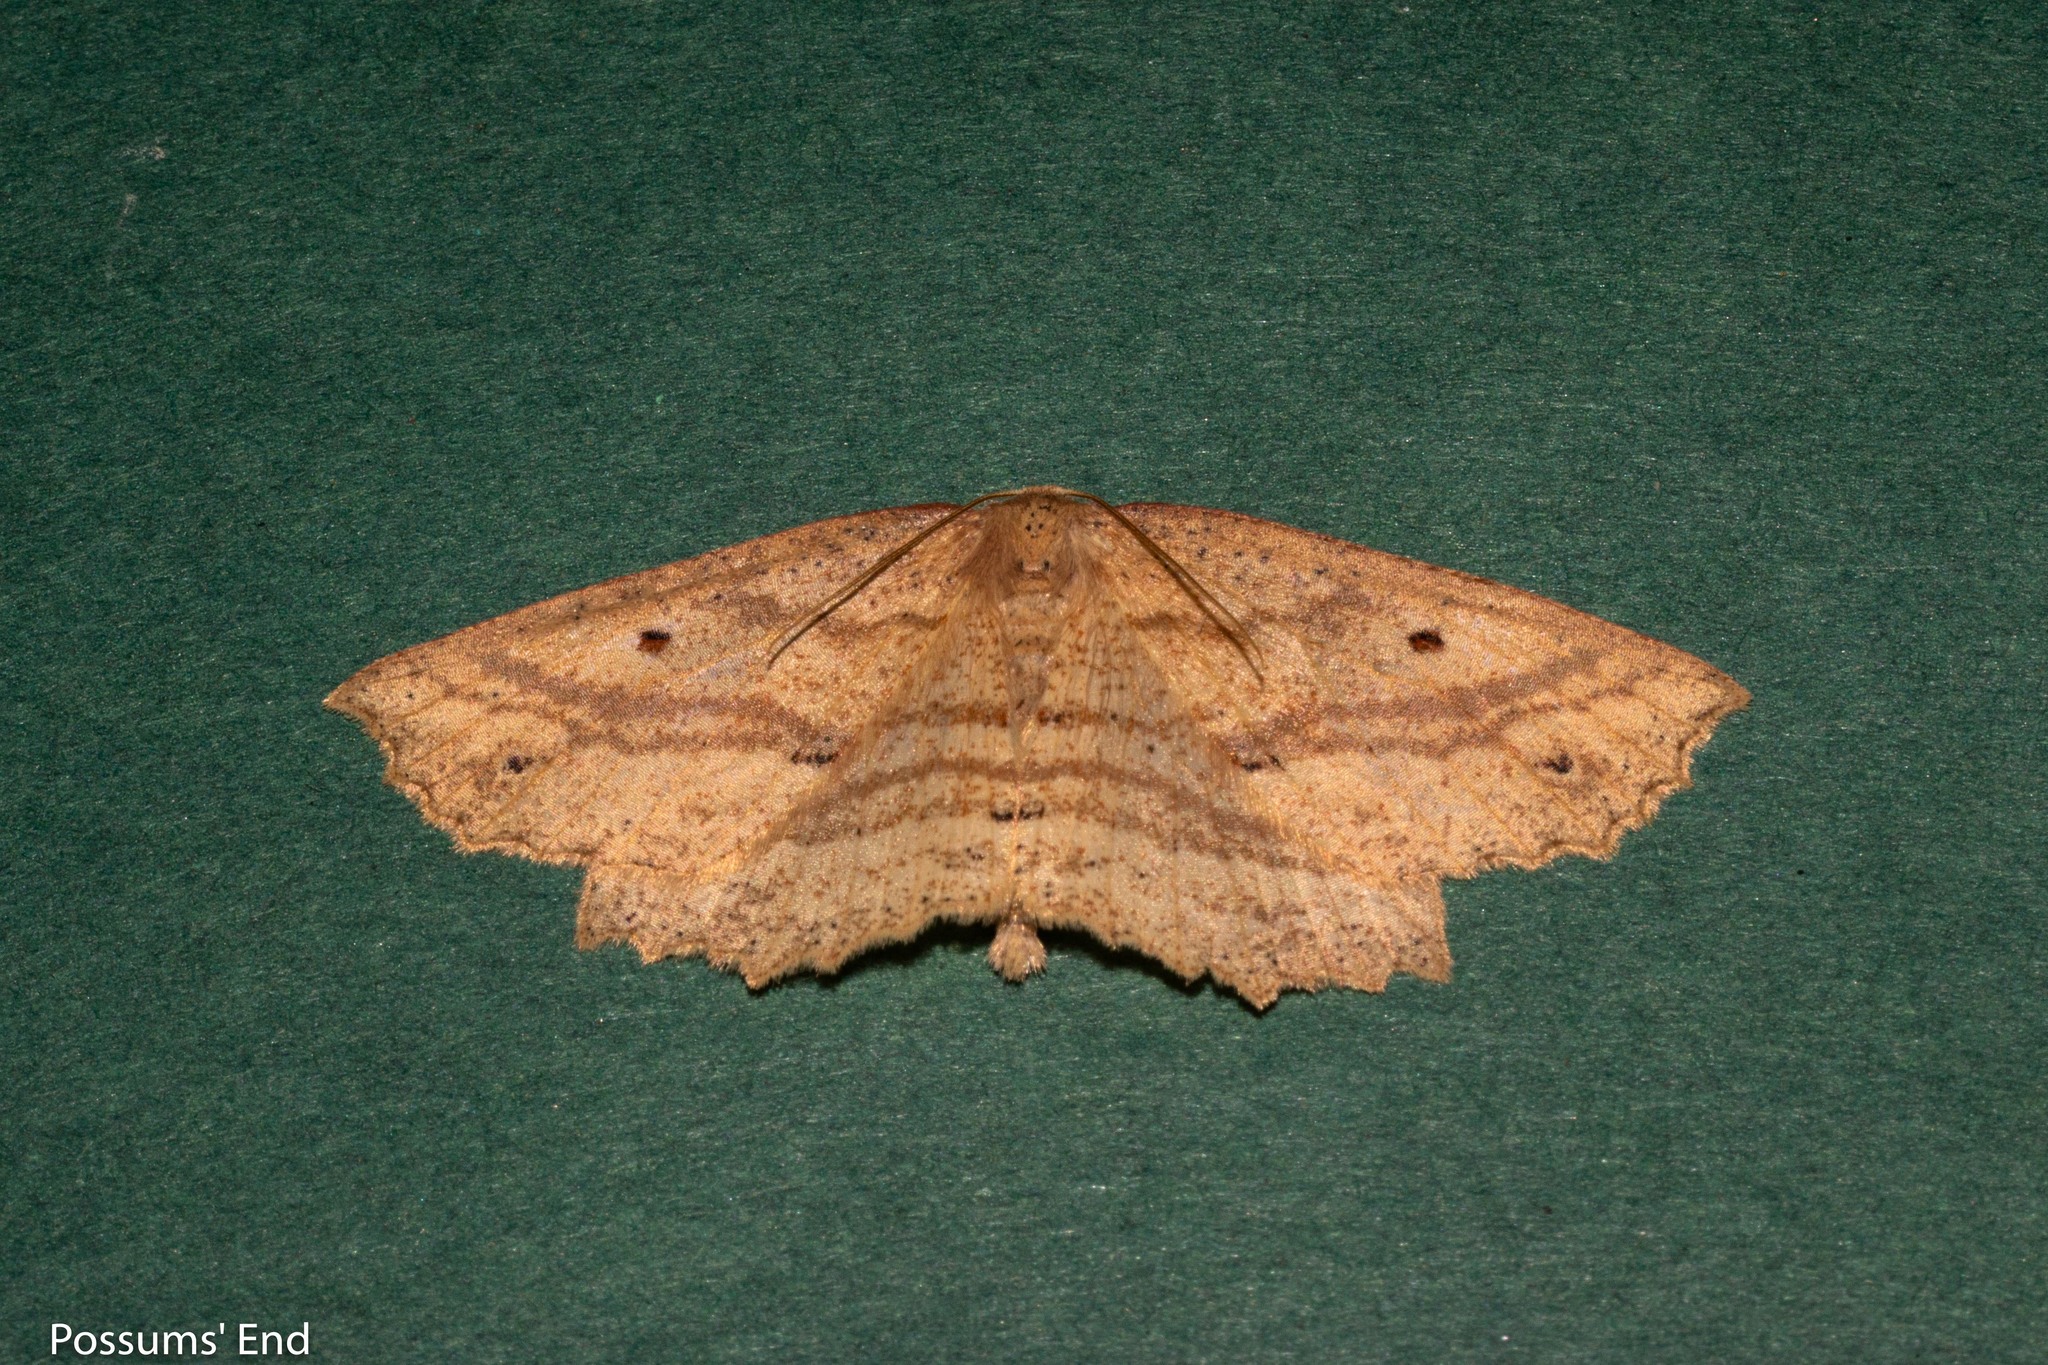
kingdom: Animalia
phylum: Arthropoda
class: Insecta
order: Lepidoptera
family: Geometridae
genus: Xyridacma
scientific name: Xyridacma veronicae
